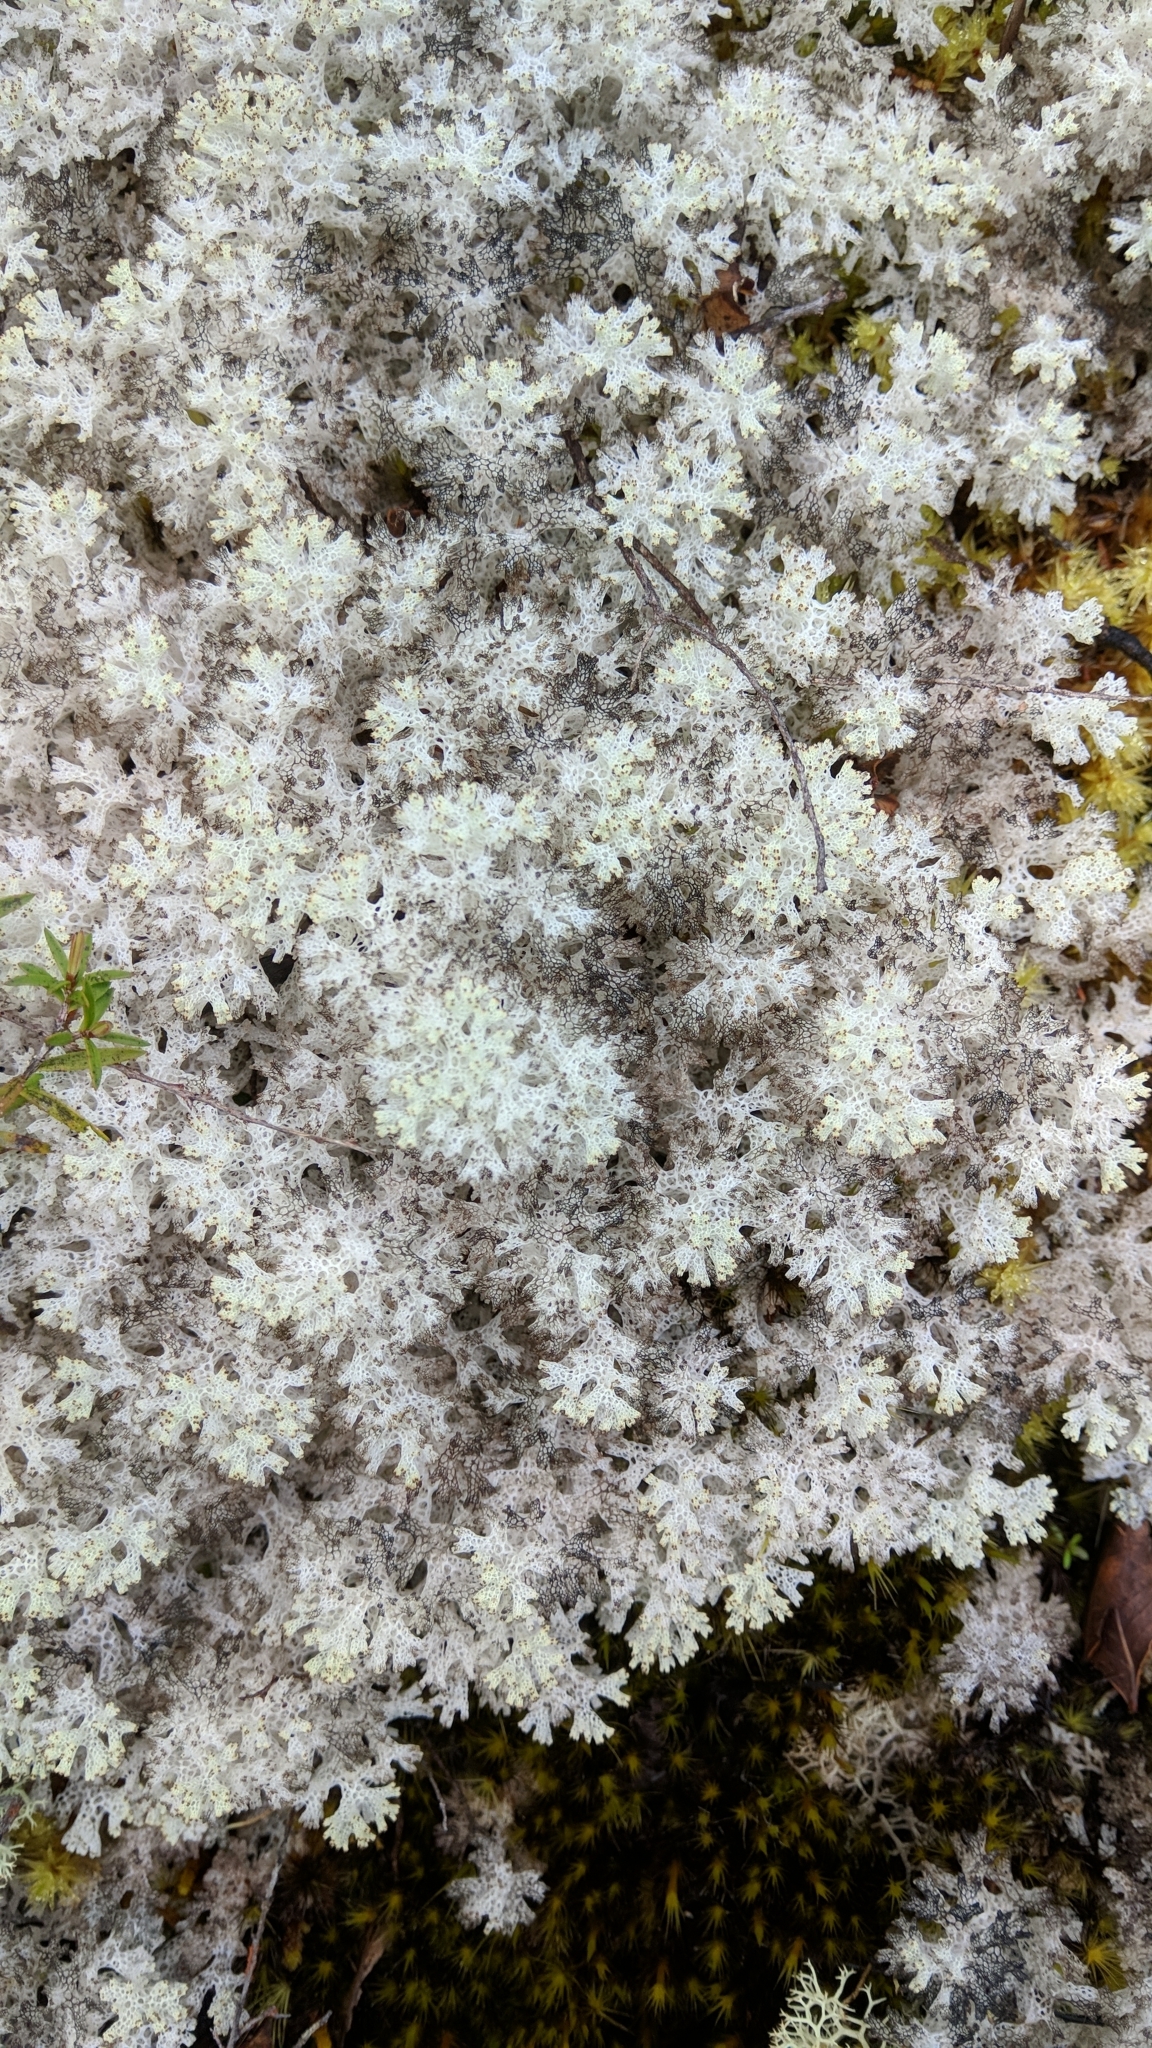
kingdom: Fungi
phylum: Ascomycota
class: Lecanoromycetes
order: Lecanorales
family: Cladoniaceae
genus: Pulchrocladia
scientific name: Pulchrocladia retipora
